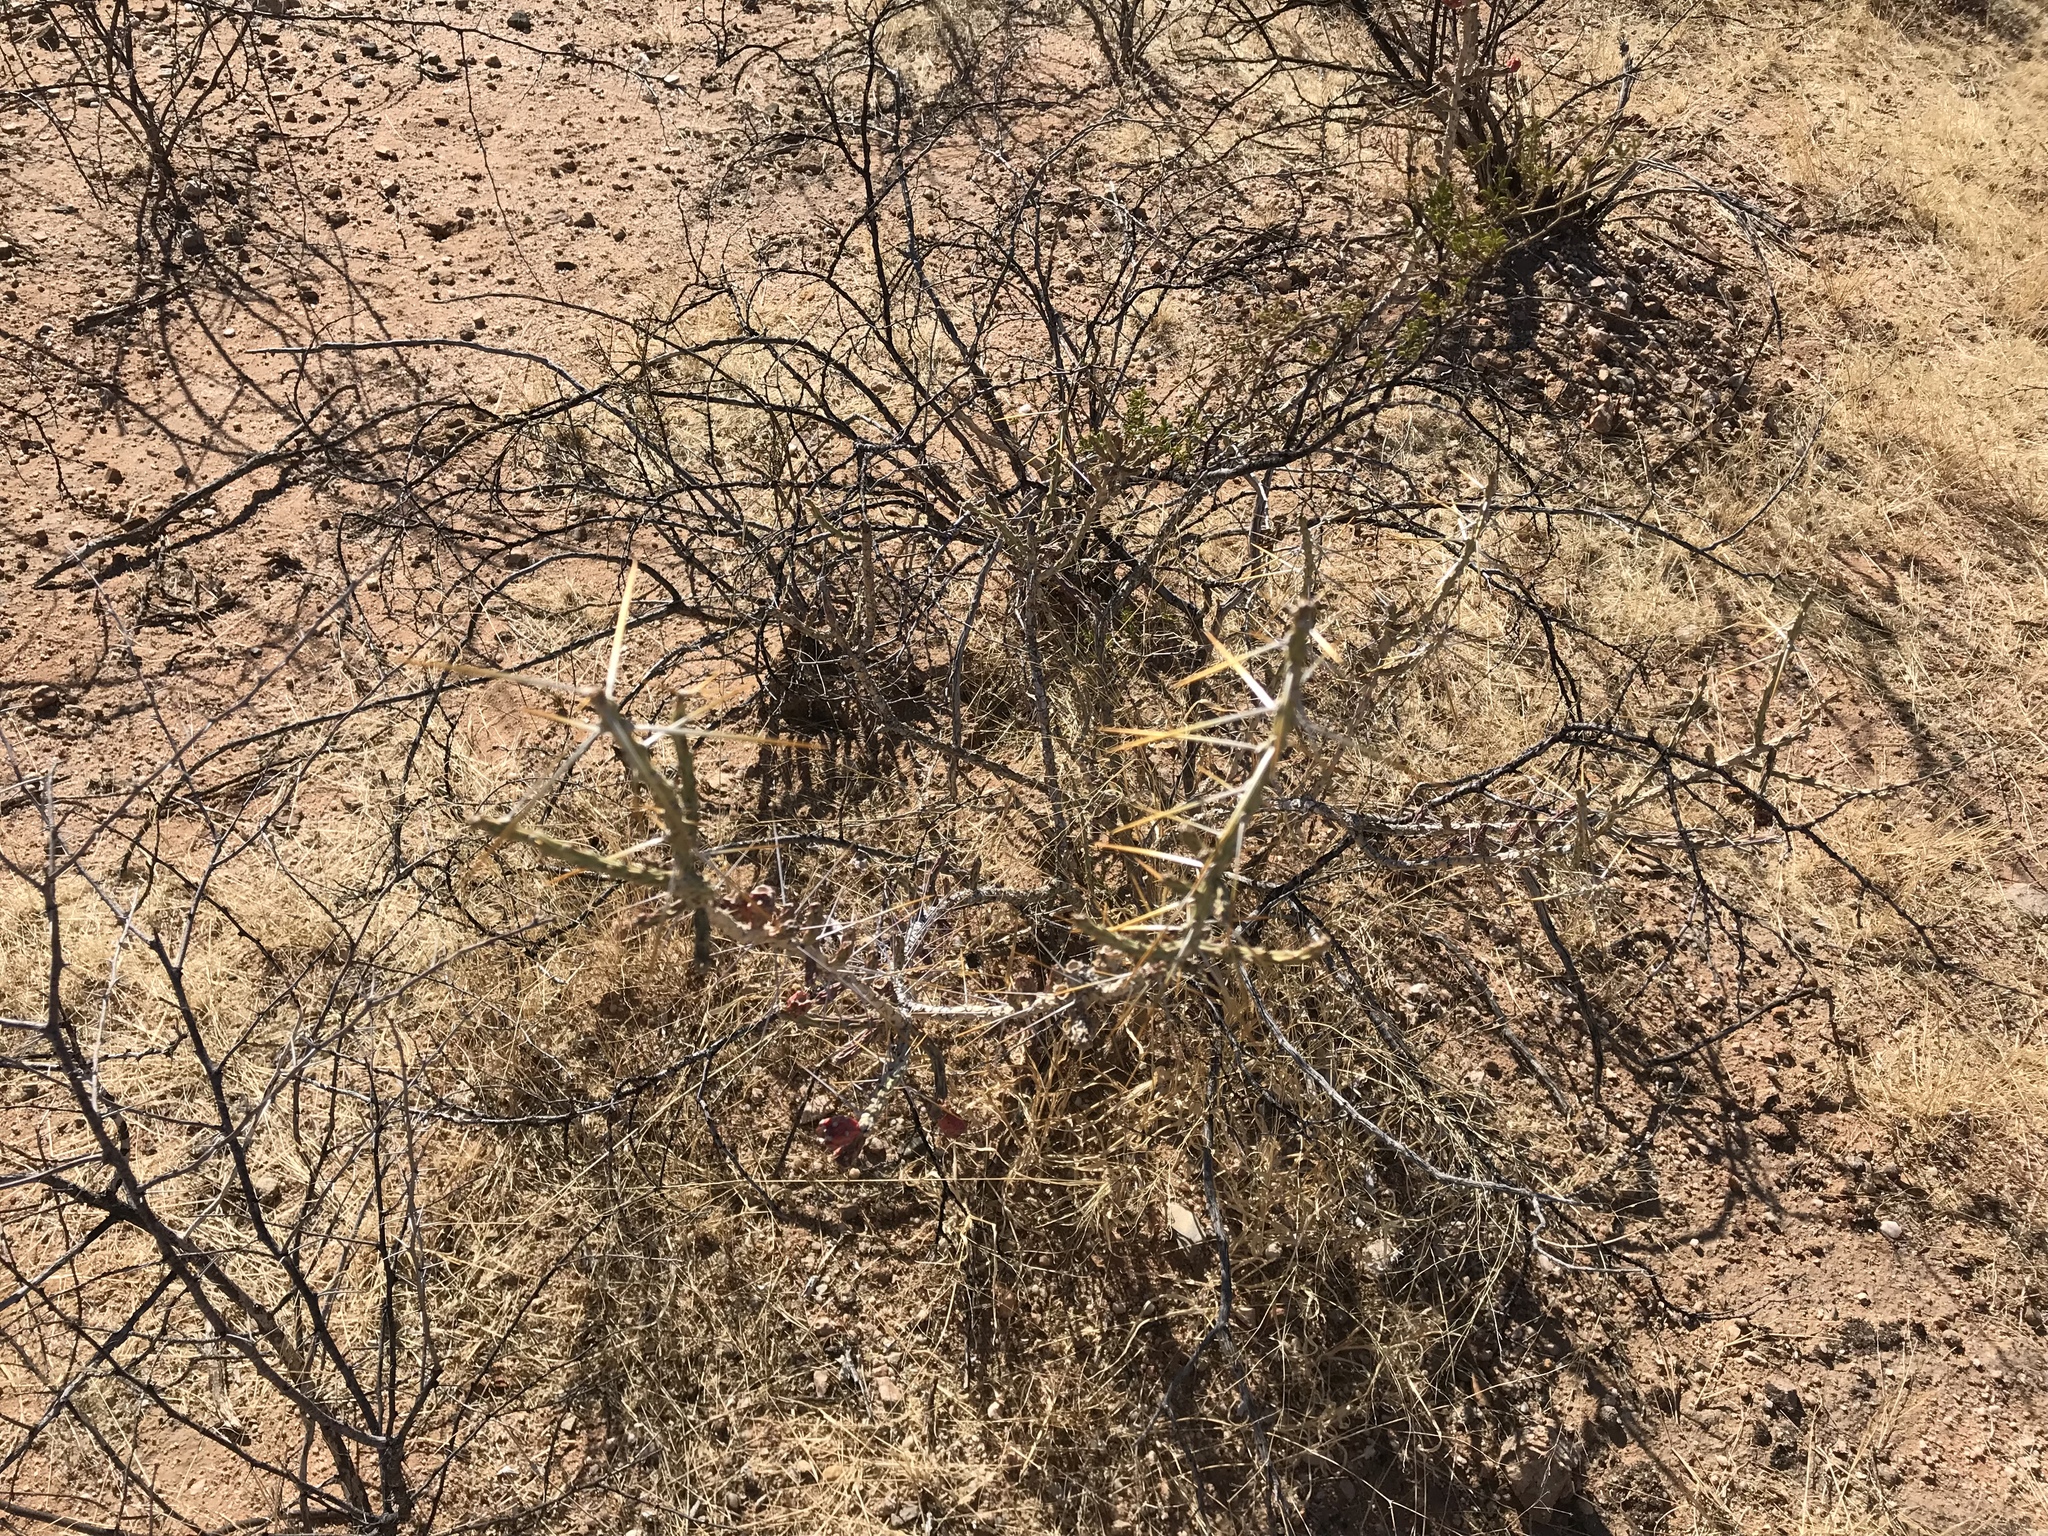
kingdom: Plantae
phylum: Tracheophyta
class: Magnoliopsida
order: Caryophyllales
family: Cactaceae
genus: Cylindropuntia
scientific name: Cylindropuntia leptocaulis
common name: Christmas cactus
